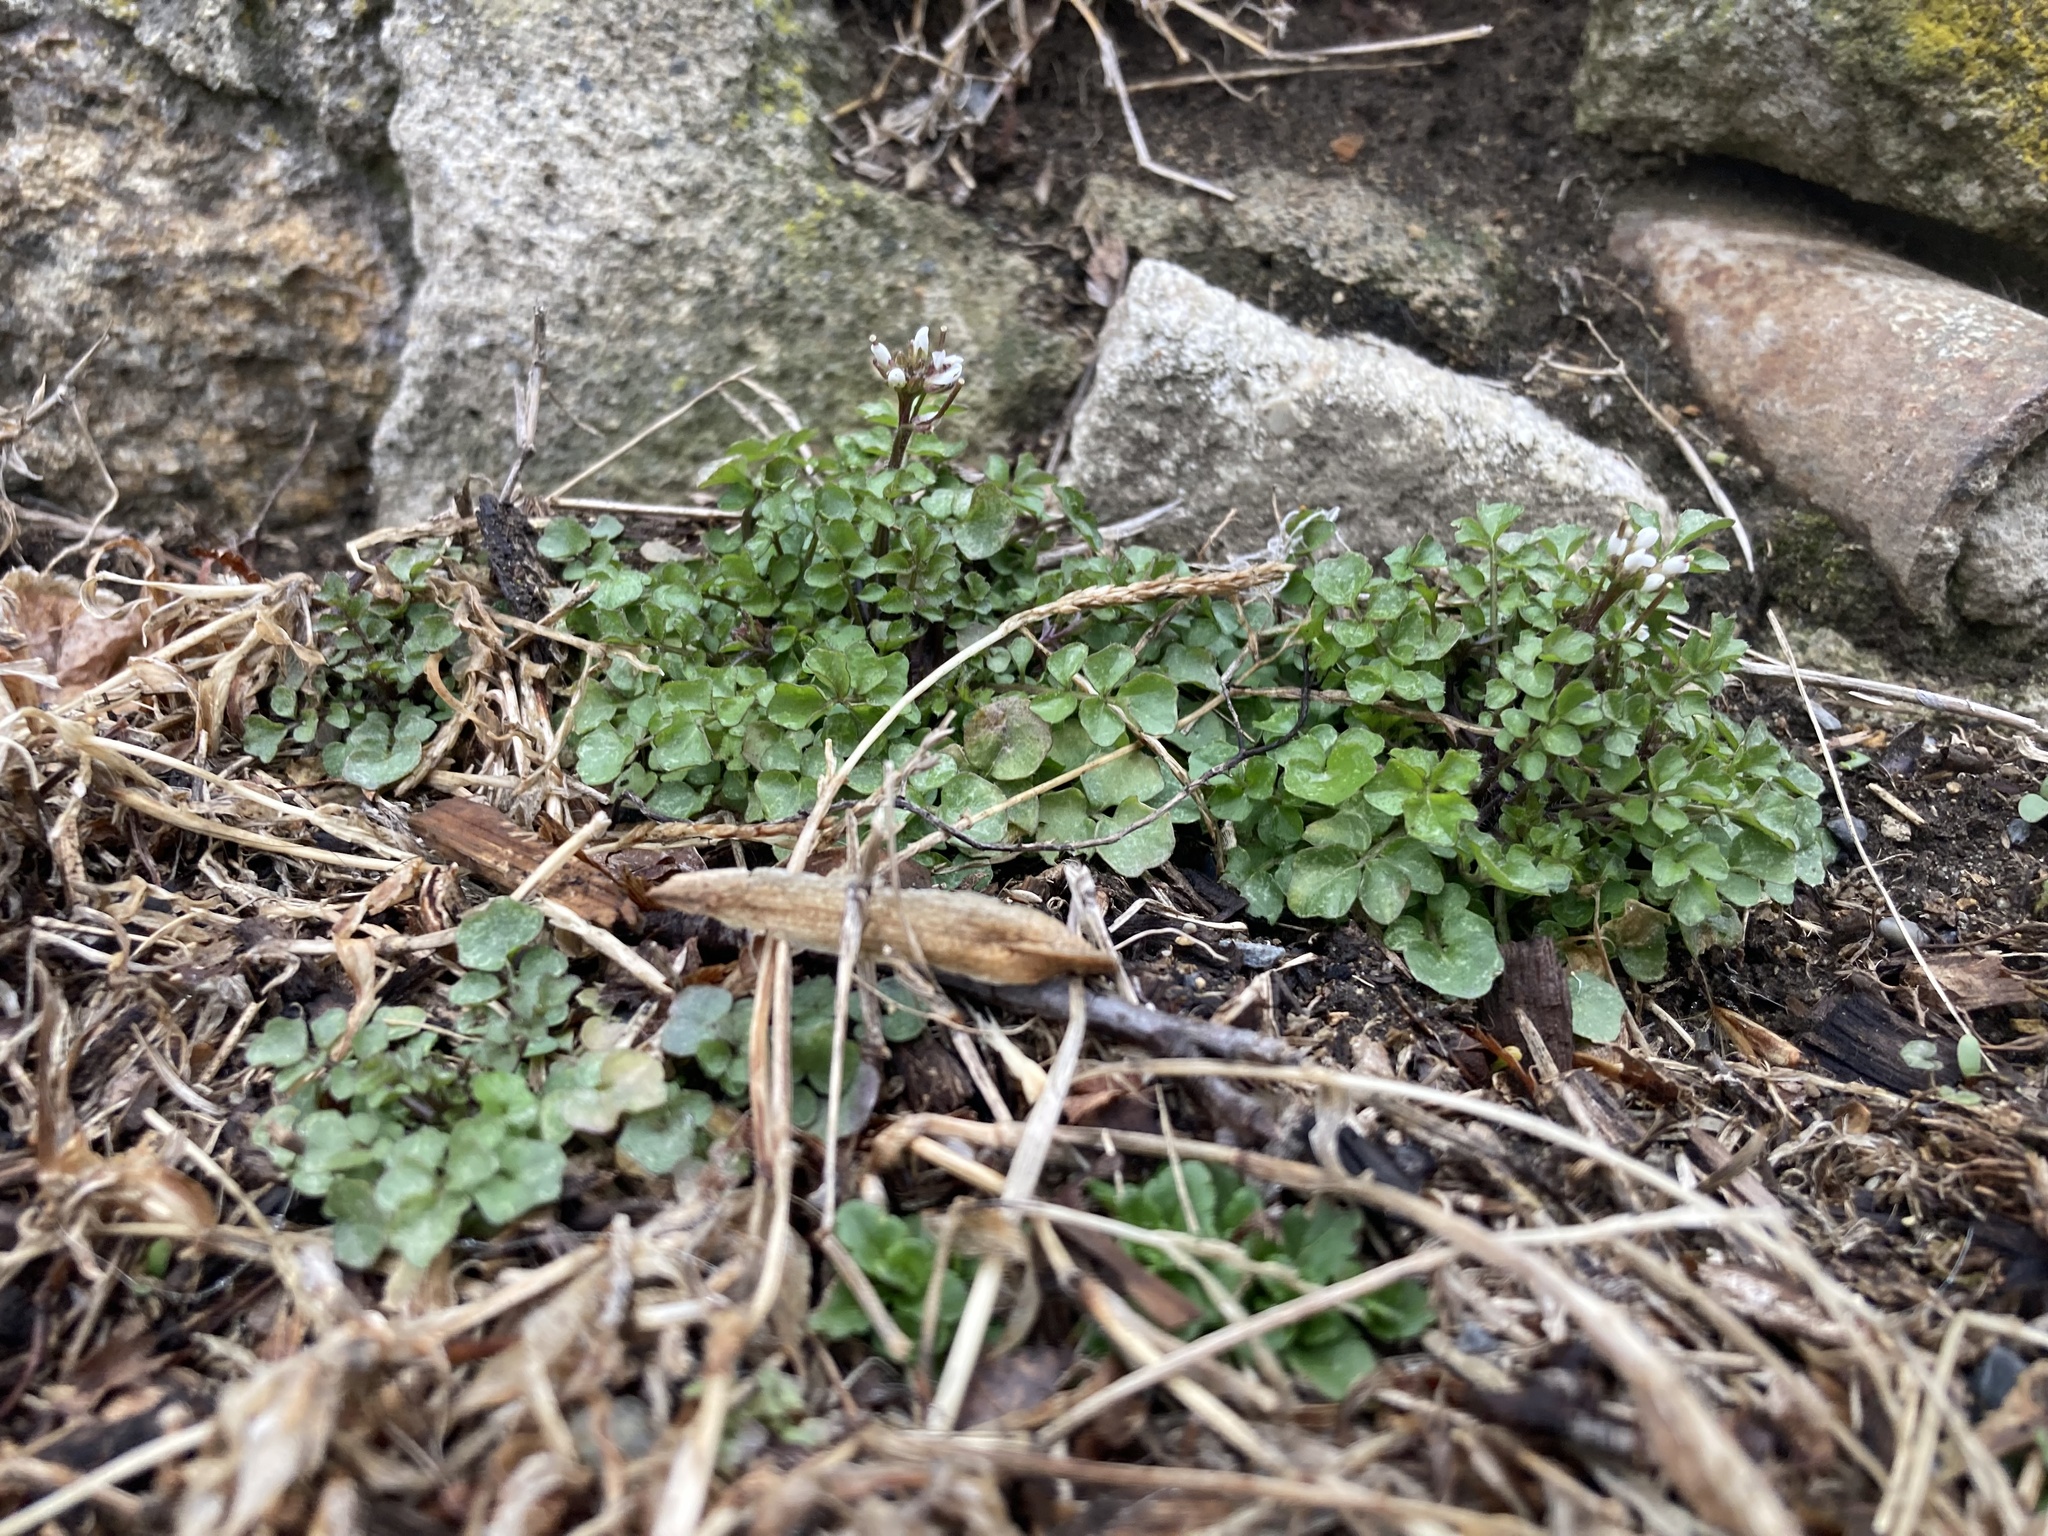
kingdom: Plantae
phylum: Tracheophyta
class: Magnoliopsida
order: Brassicales
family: Brassicaceae
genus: Cardamine
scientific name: Cardamine hirsuta
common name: Hairy bittercress
